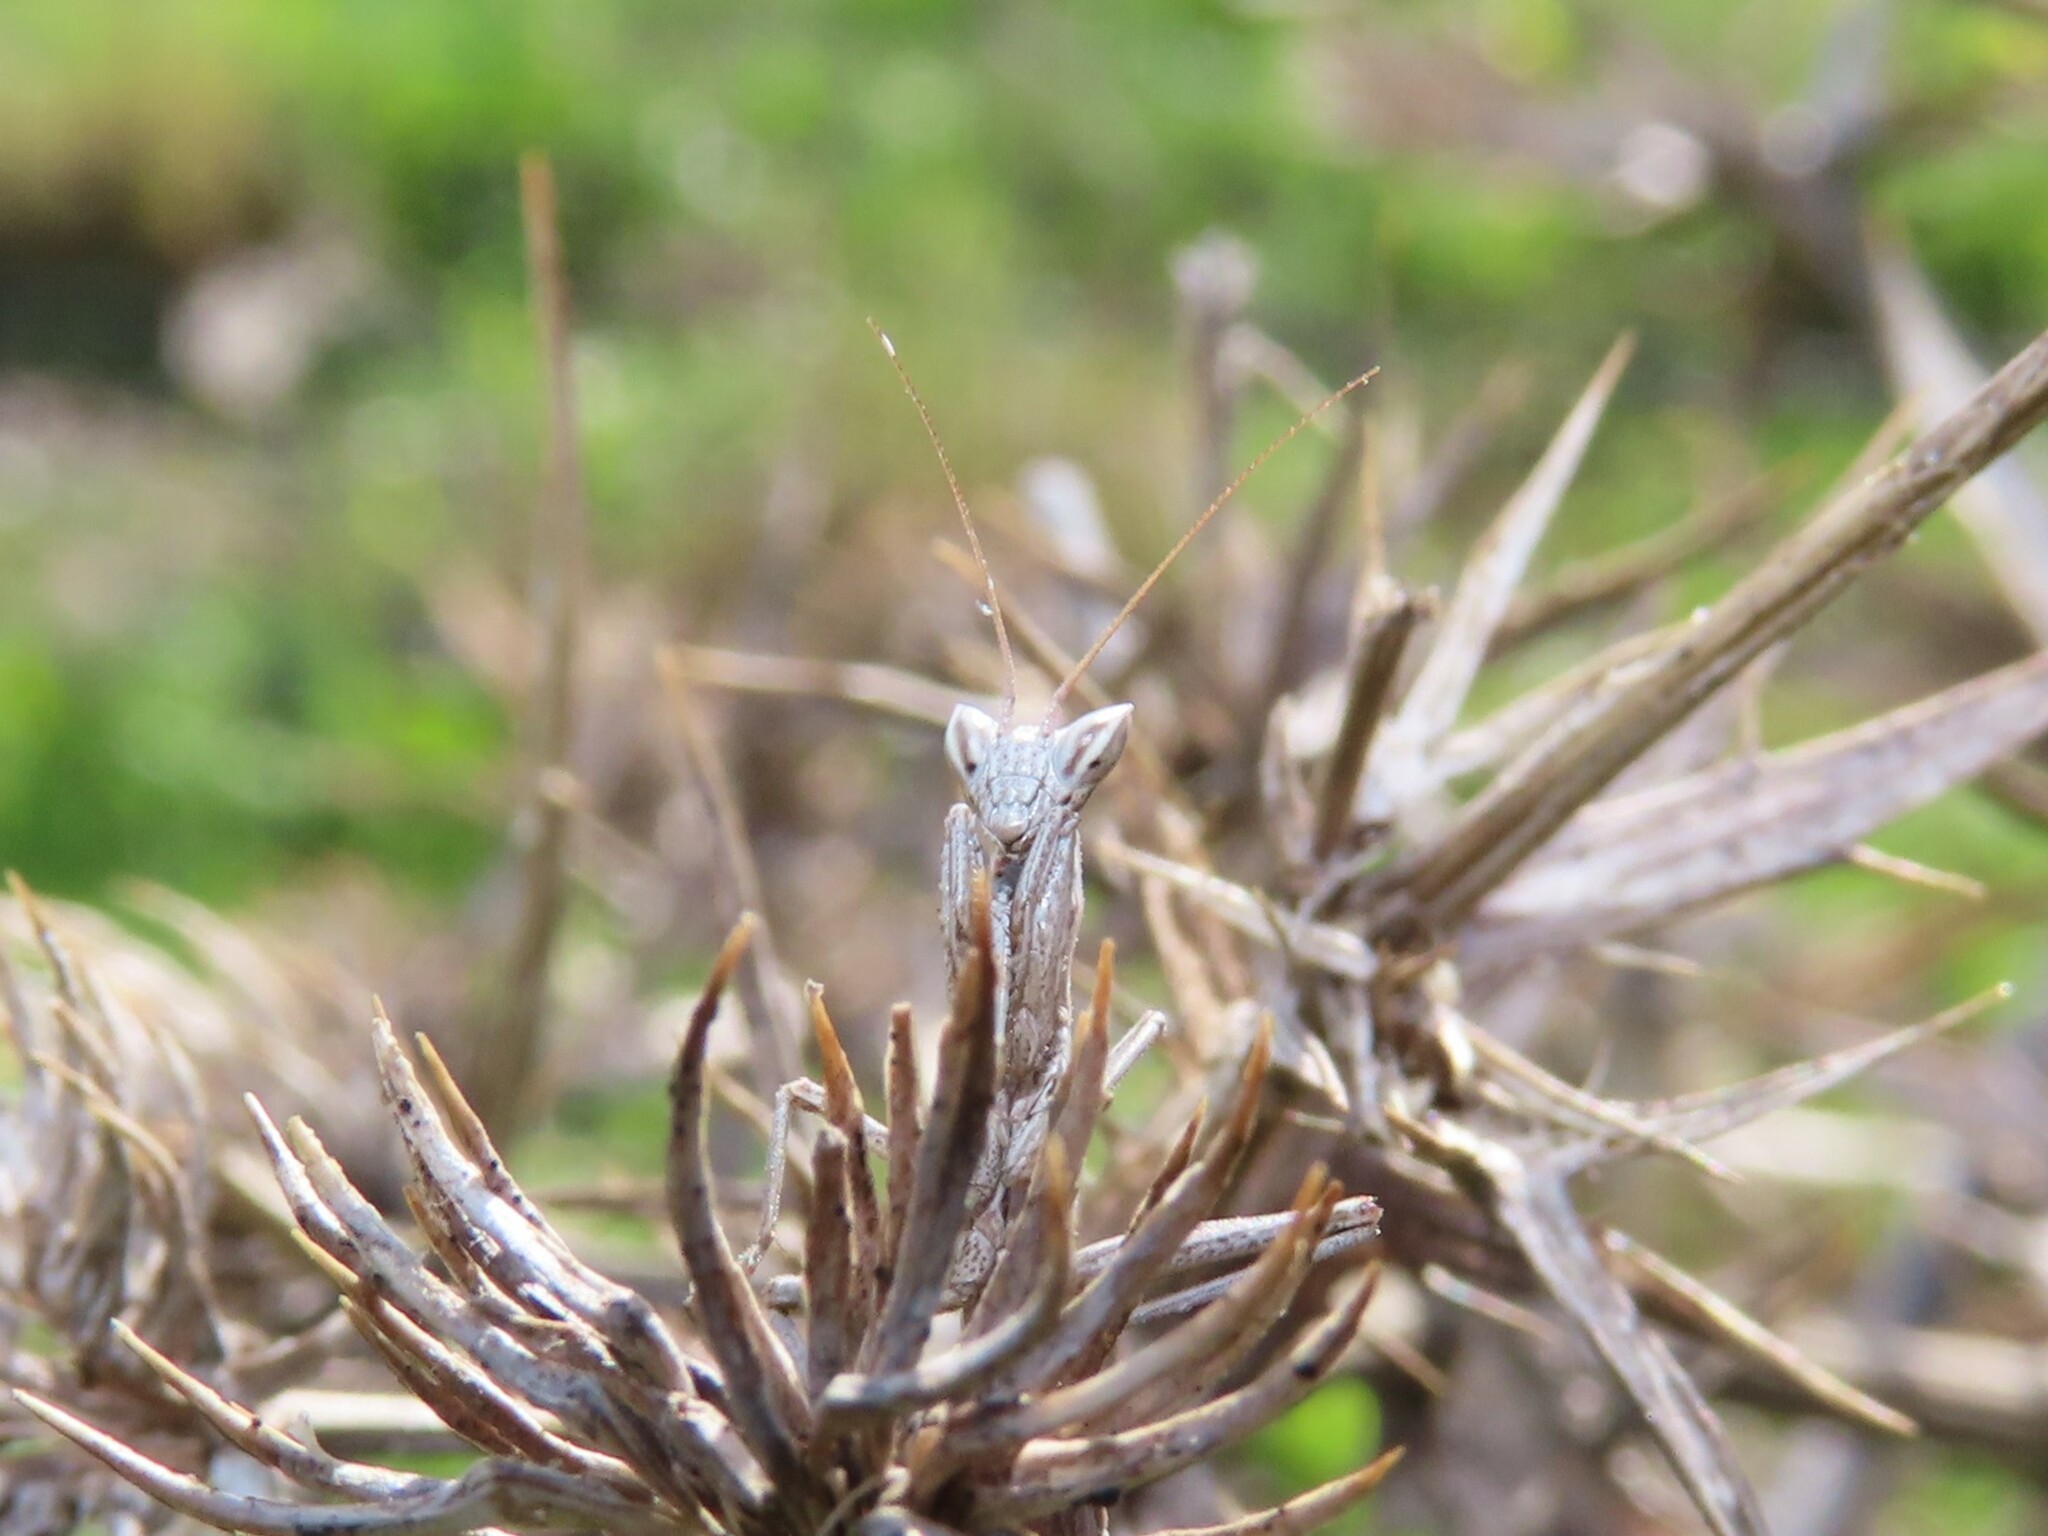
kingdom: Animalia
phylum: Arthropoda
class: Insecta
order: Mantodea
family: Amelidae
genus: Ameles
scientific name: Ameles picteti
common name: Pictet's dwarf mantis
